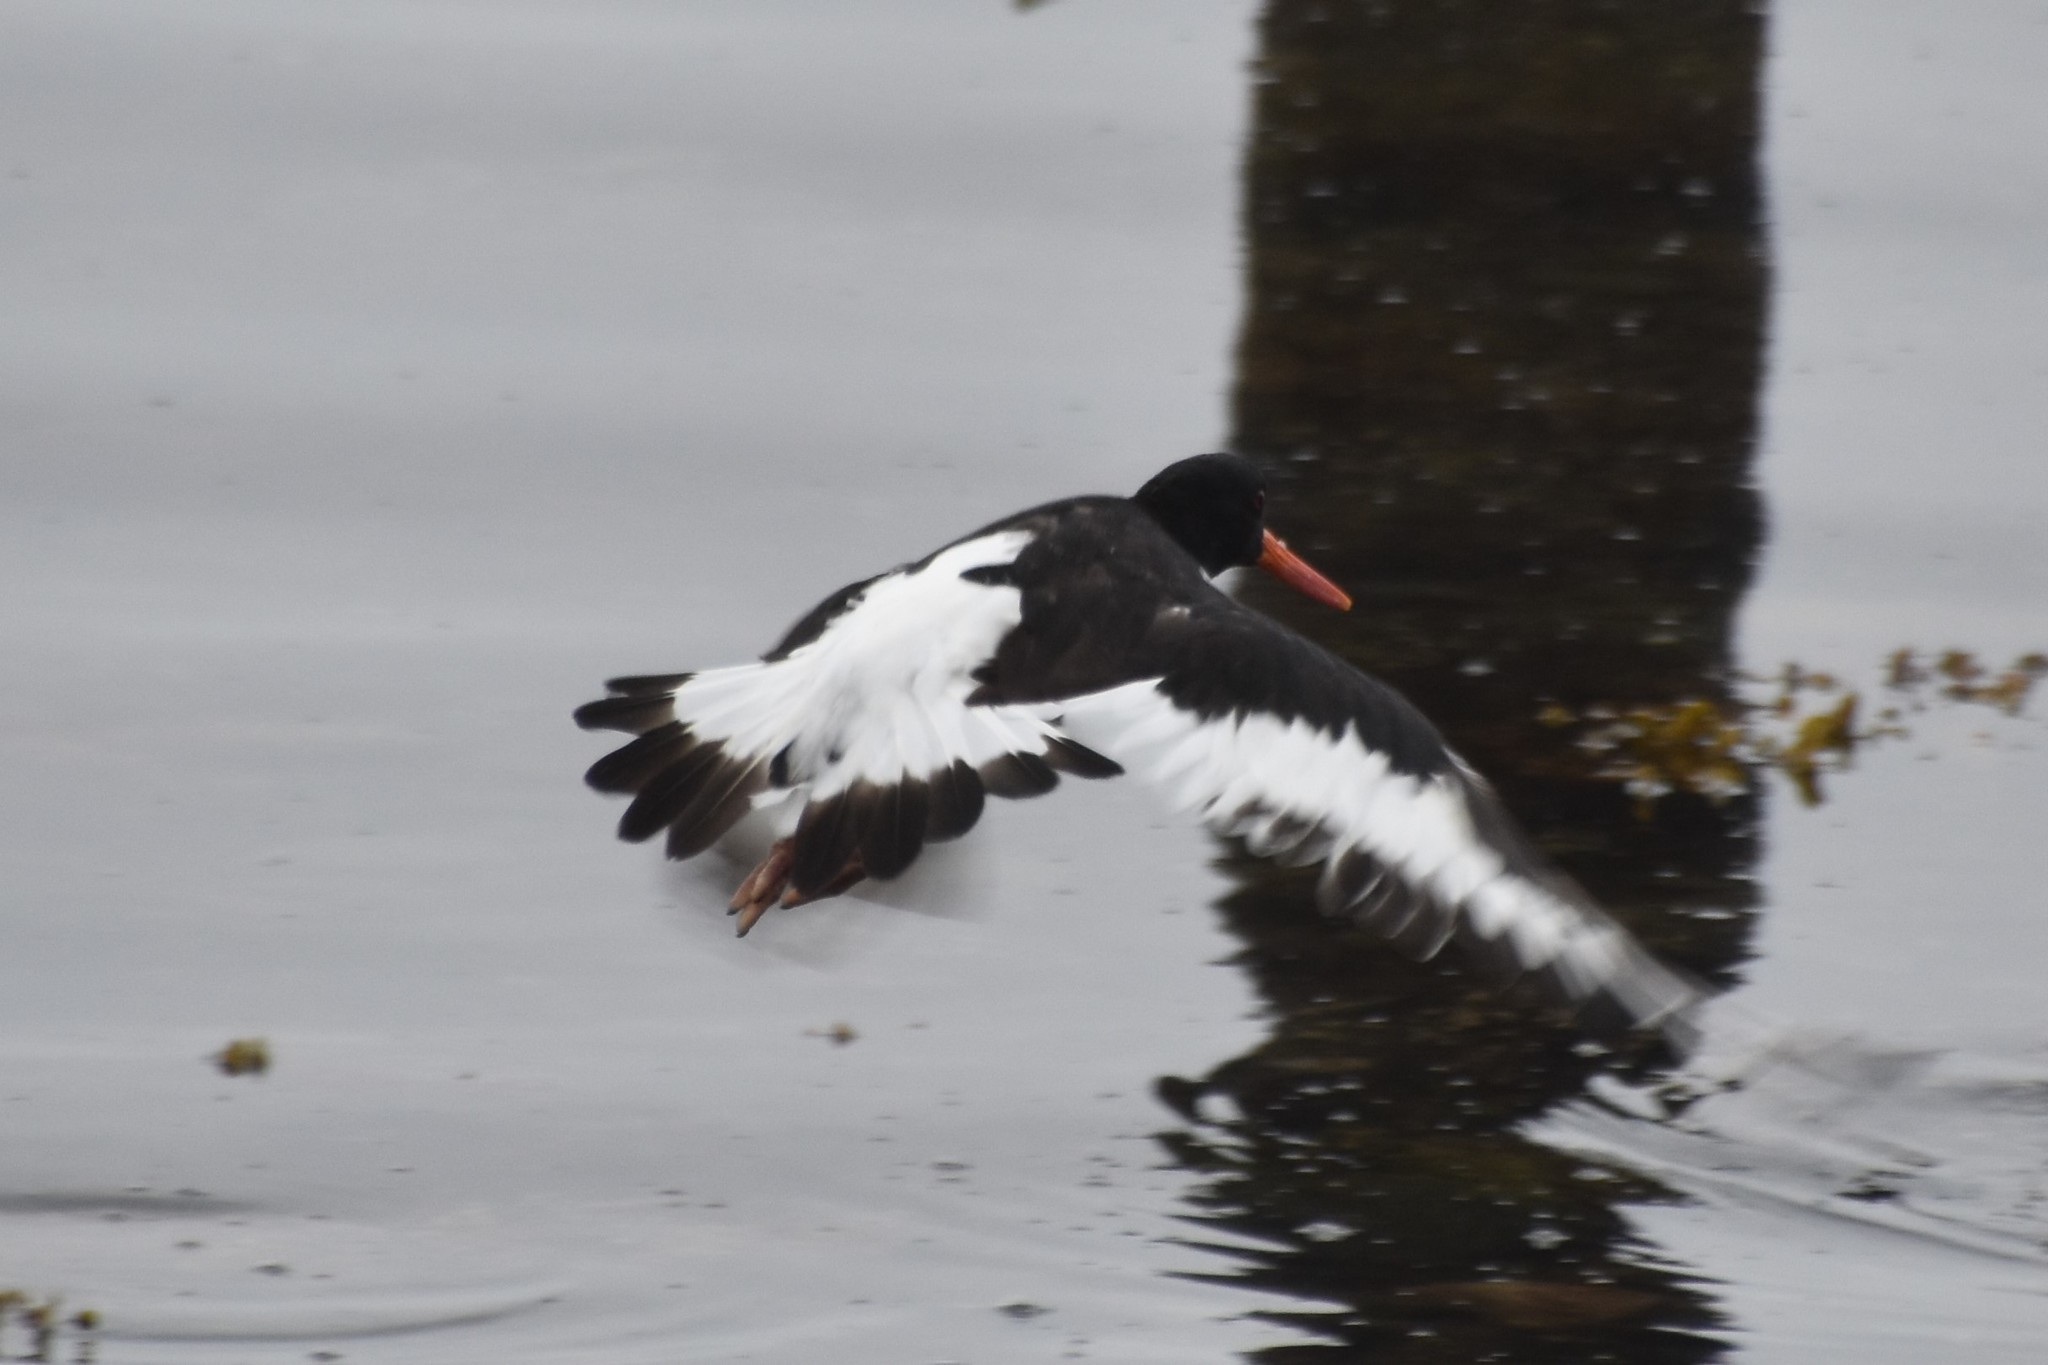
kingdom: Animalia
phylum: Chordata
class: Aves
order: Charadriiformes
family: Haematopodidae
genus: Haematopus
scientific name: Haematopus ostralegus
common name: Eurasian oystercatcher
